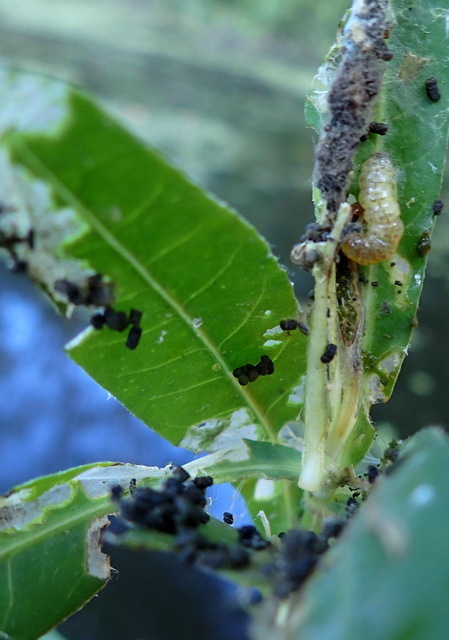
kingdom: Animalia
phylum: Arthropoda
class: Insecta
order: Coleoptera
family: Chrysomelidae
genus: Agasicles
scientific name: Agasicles hygrophila
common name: Alligatorweed flea beetle
